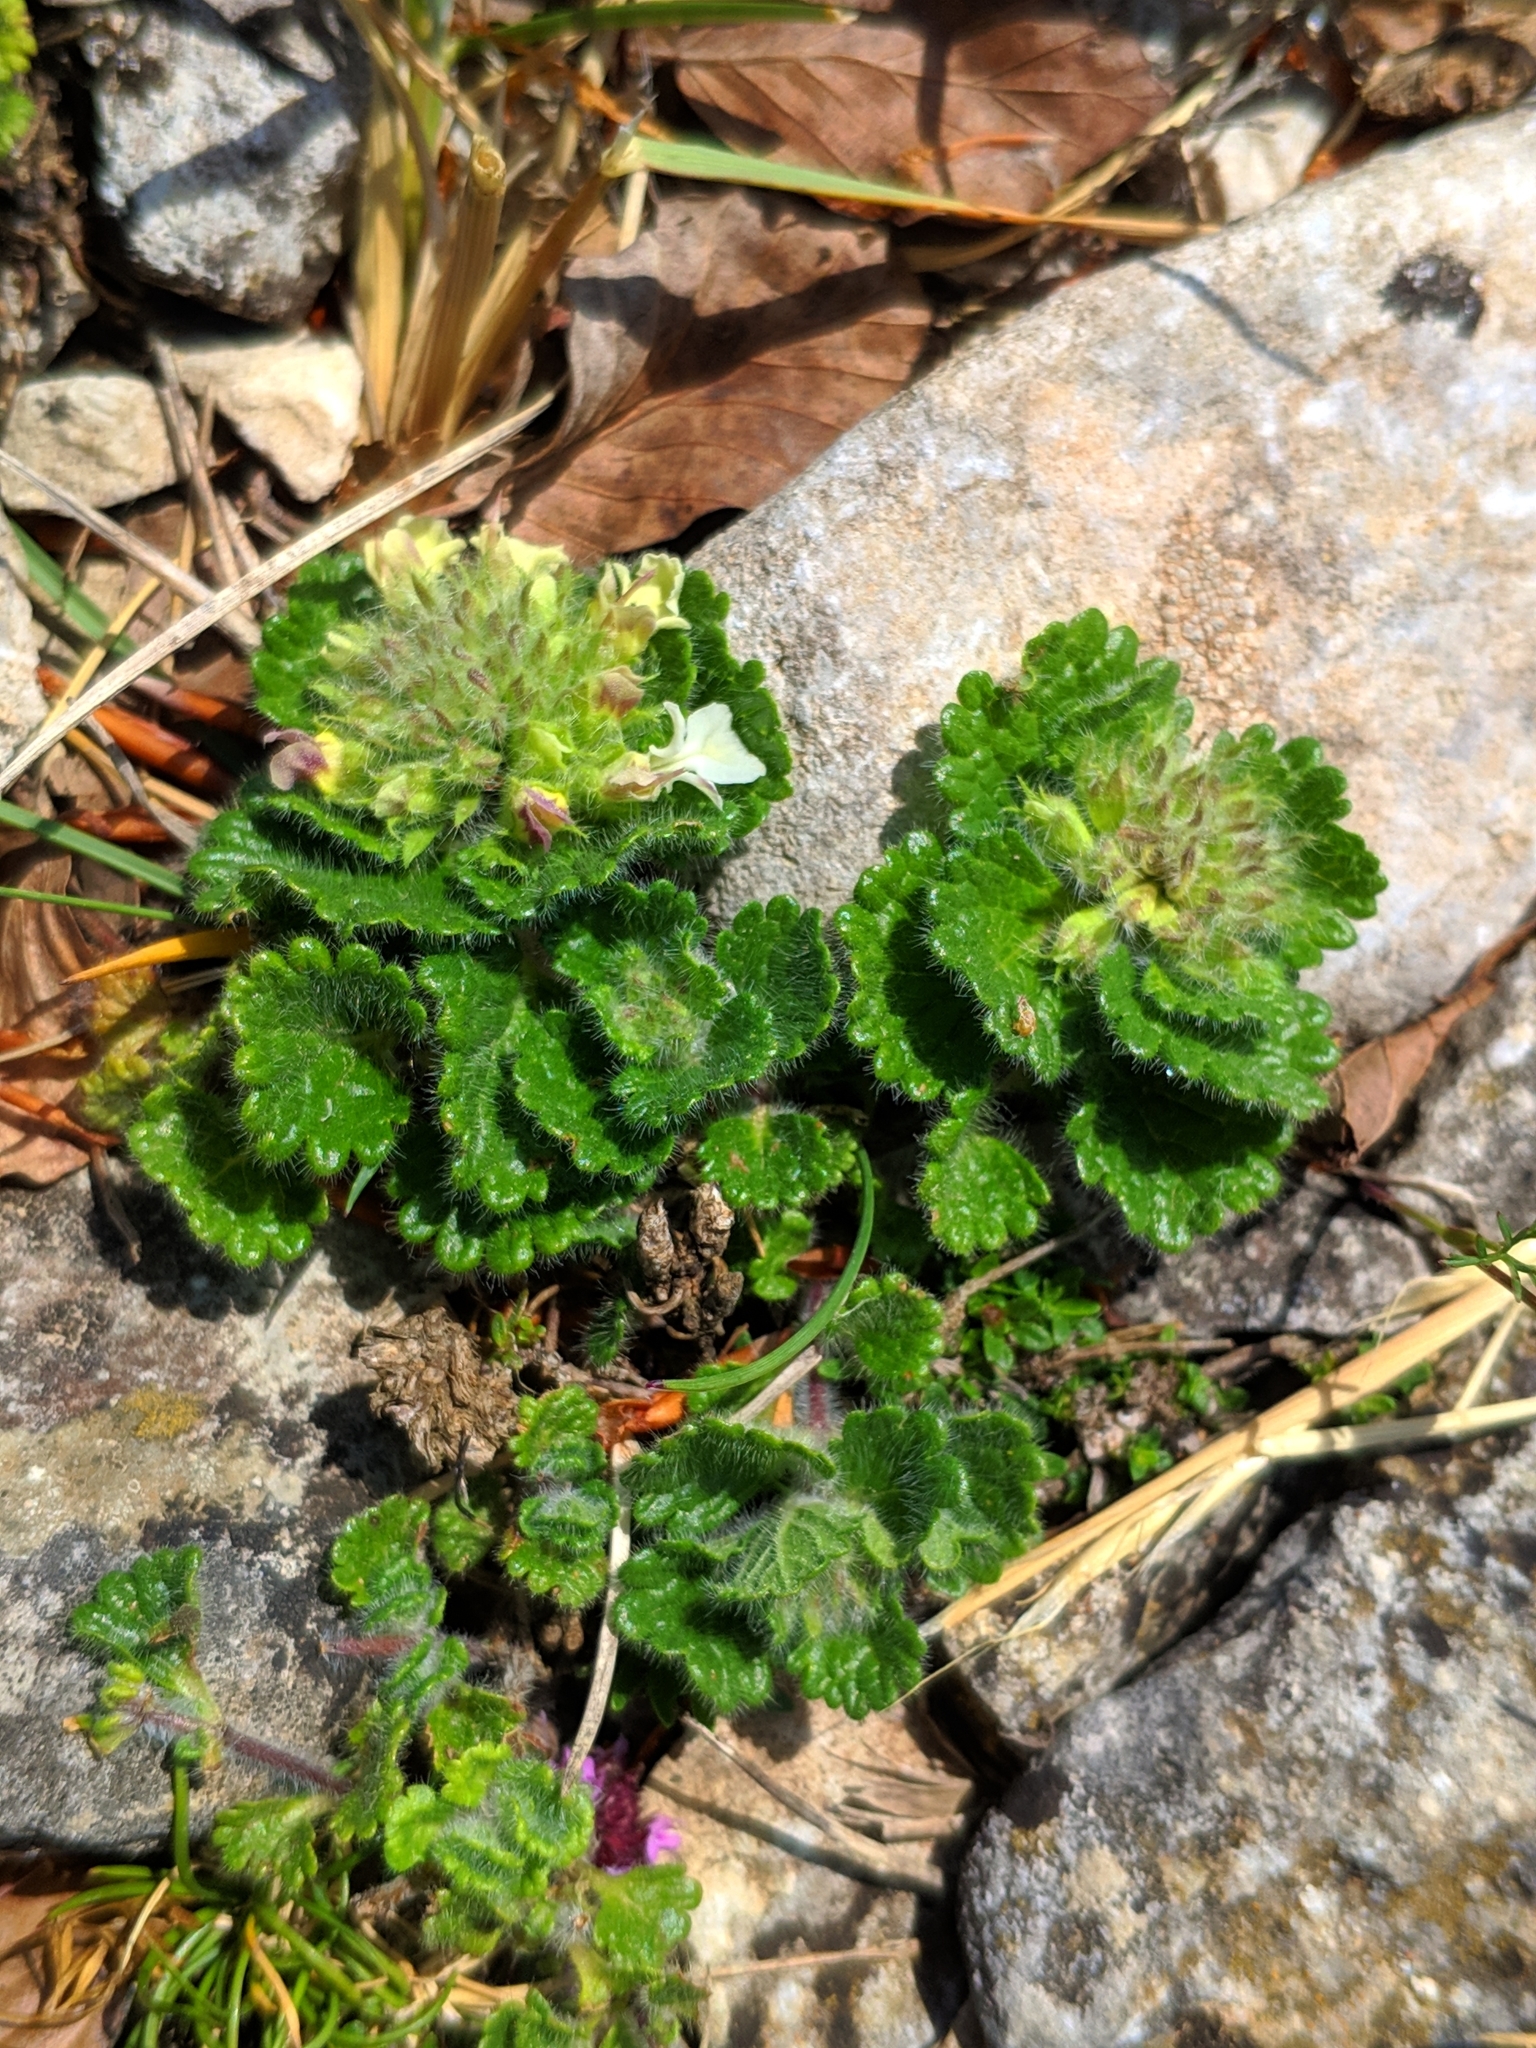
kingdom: Plantae
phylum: Tracheophyta
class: Magnoliopsida
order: Lamiales
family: Lamiaceae
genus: Teucrium
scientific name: Teucrium pyrenaicum
